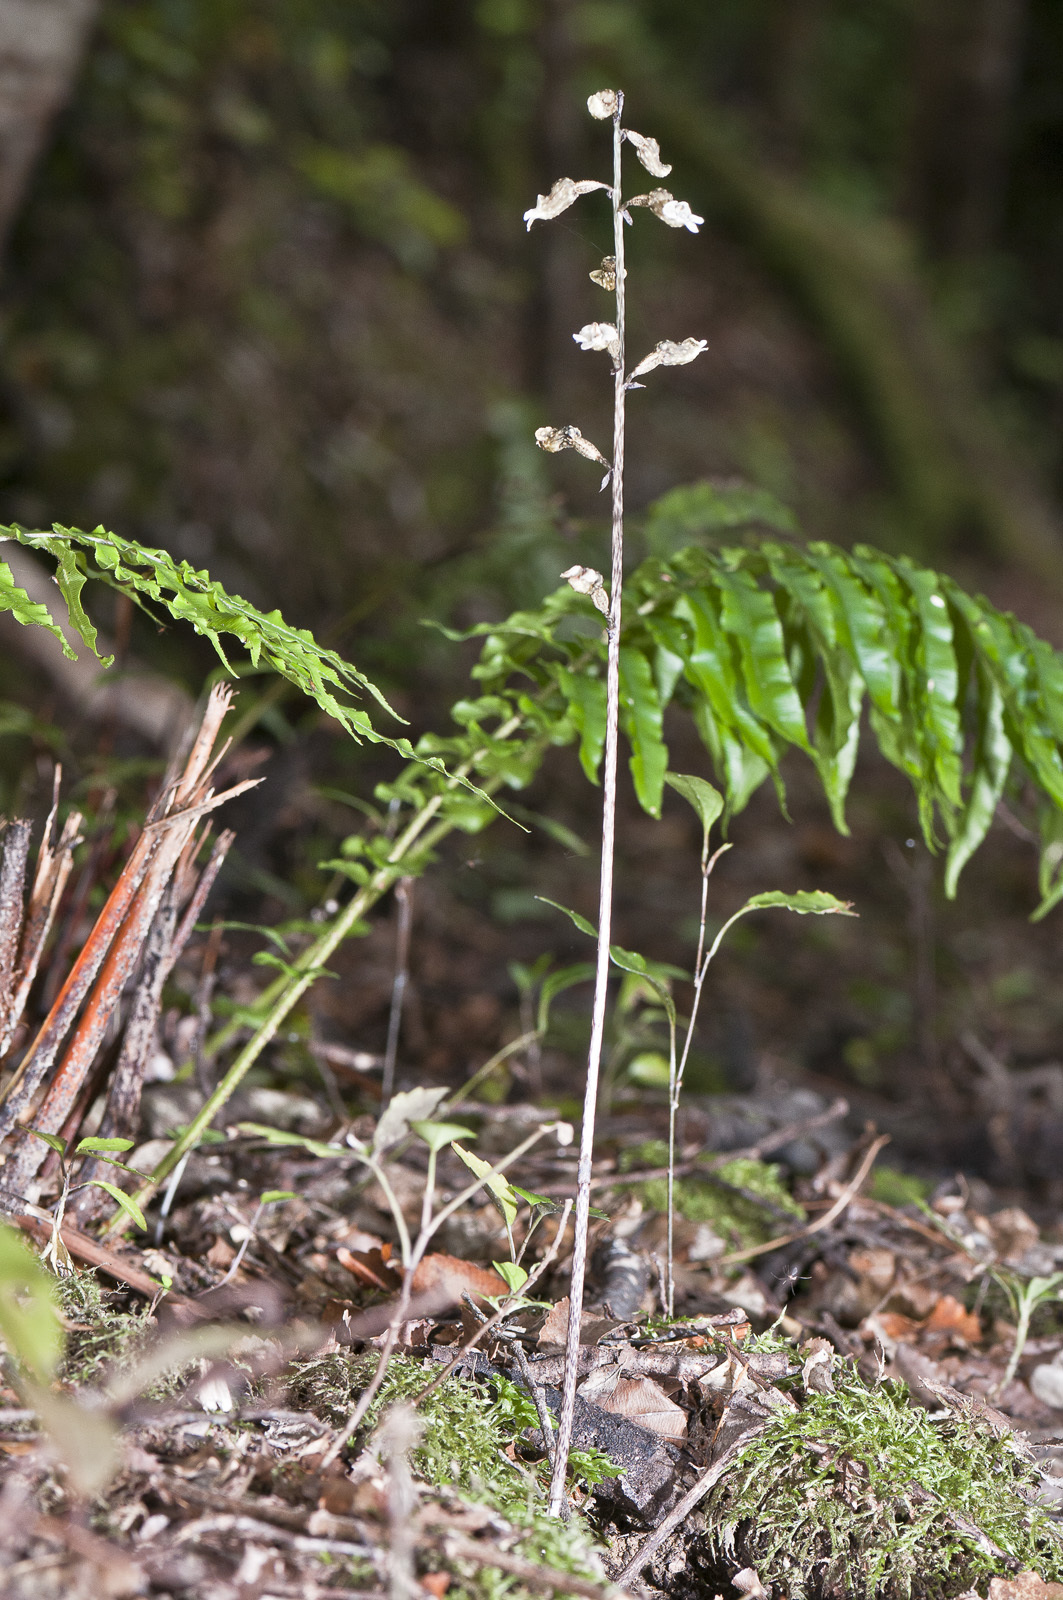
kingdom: Plantae
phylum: Tracheophyta
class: Liliopsida
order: Asparagales
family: Orchidaceae
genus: Gastrodia
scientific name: Gastrodia cunninghamii
